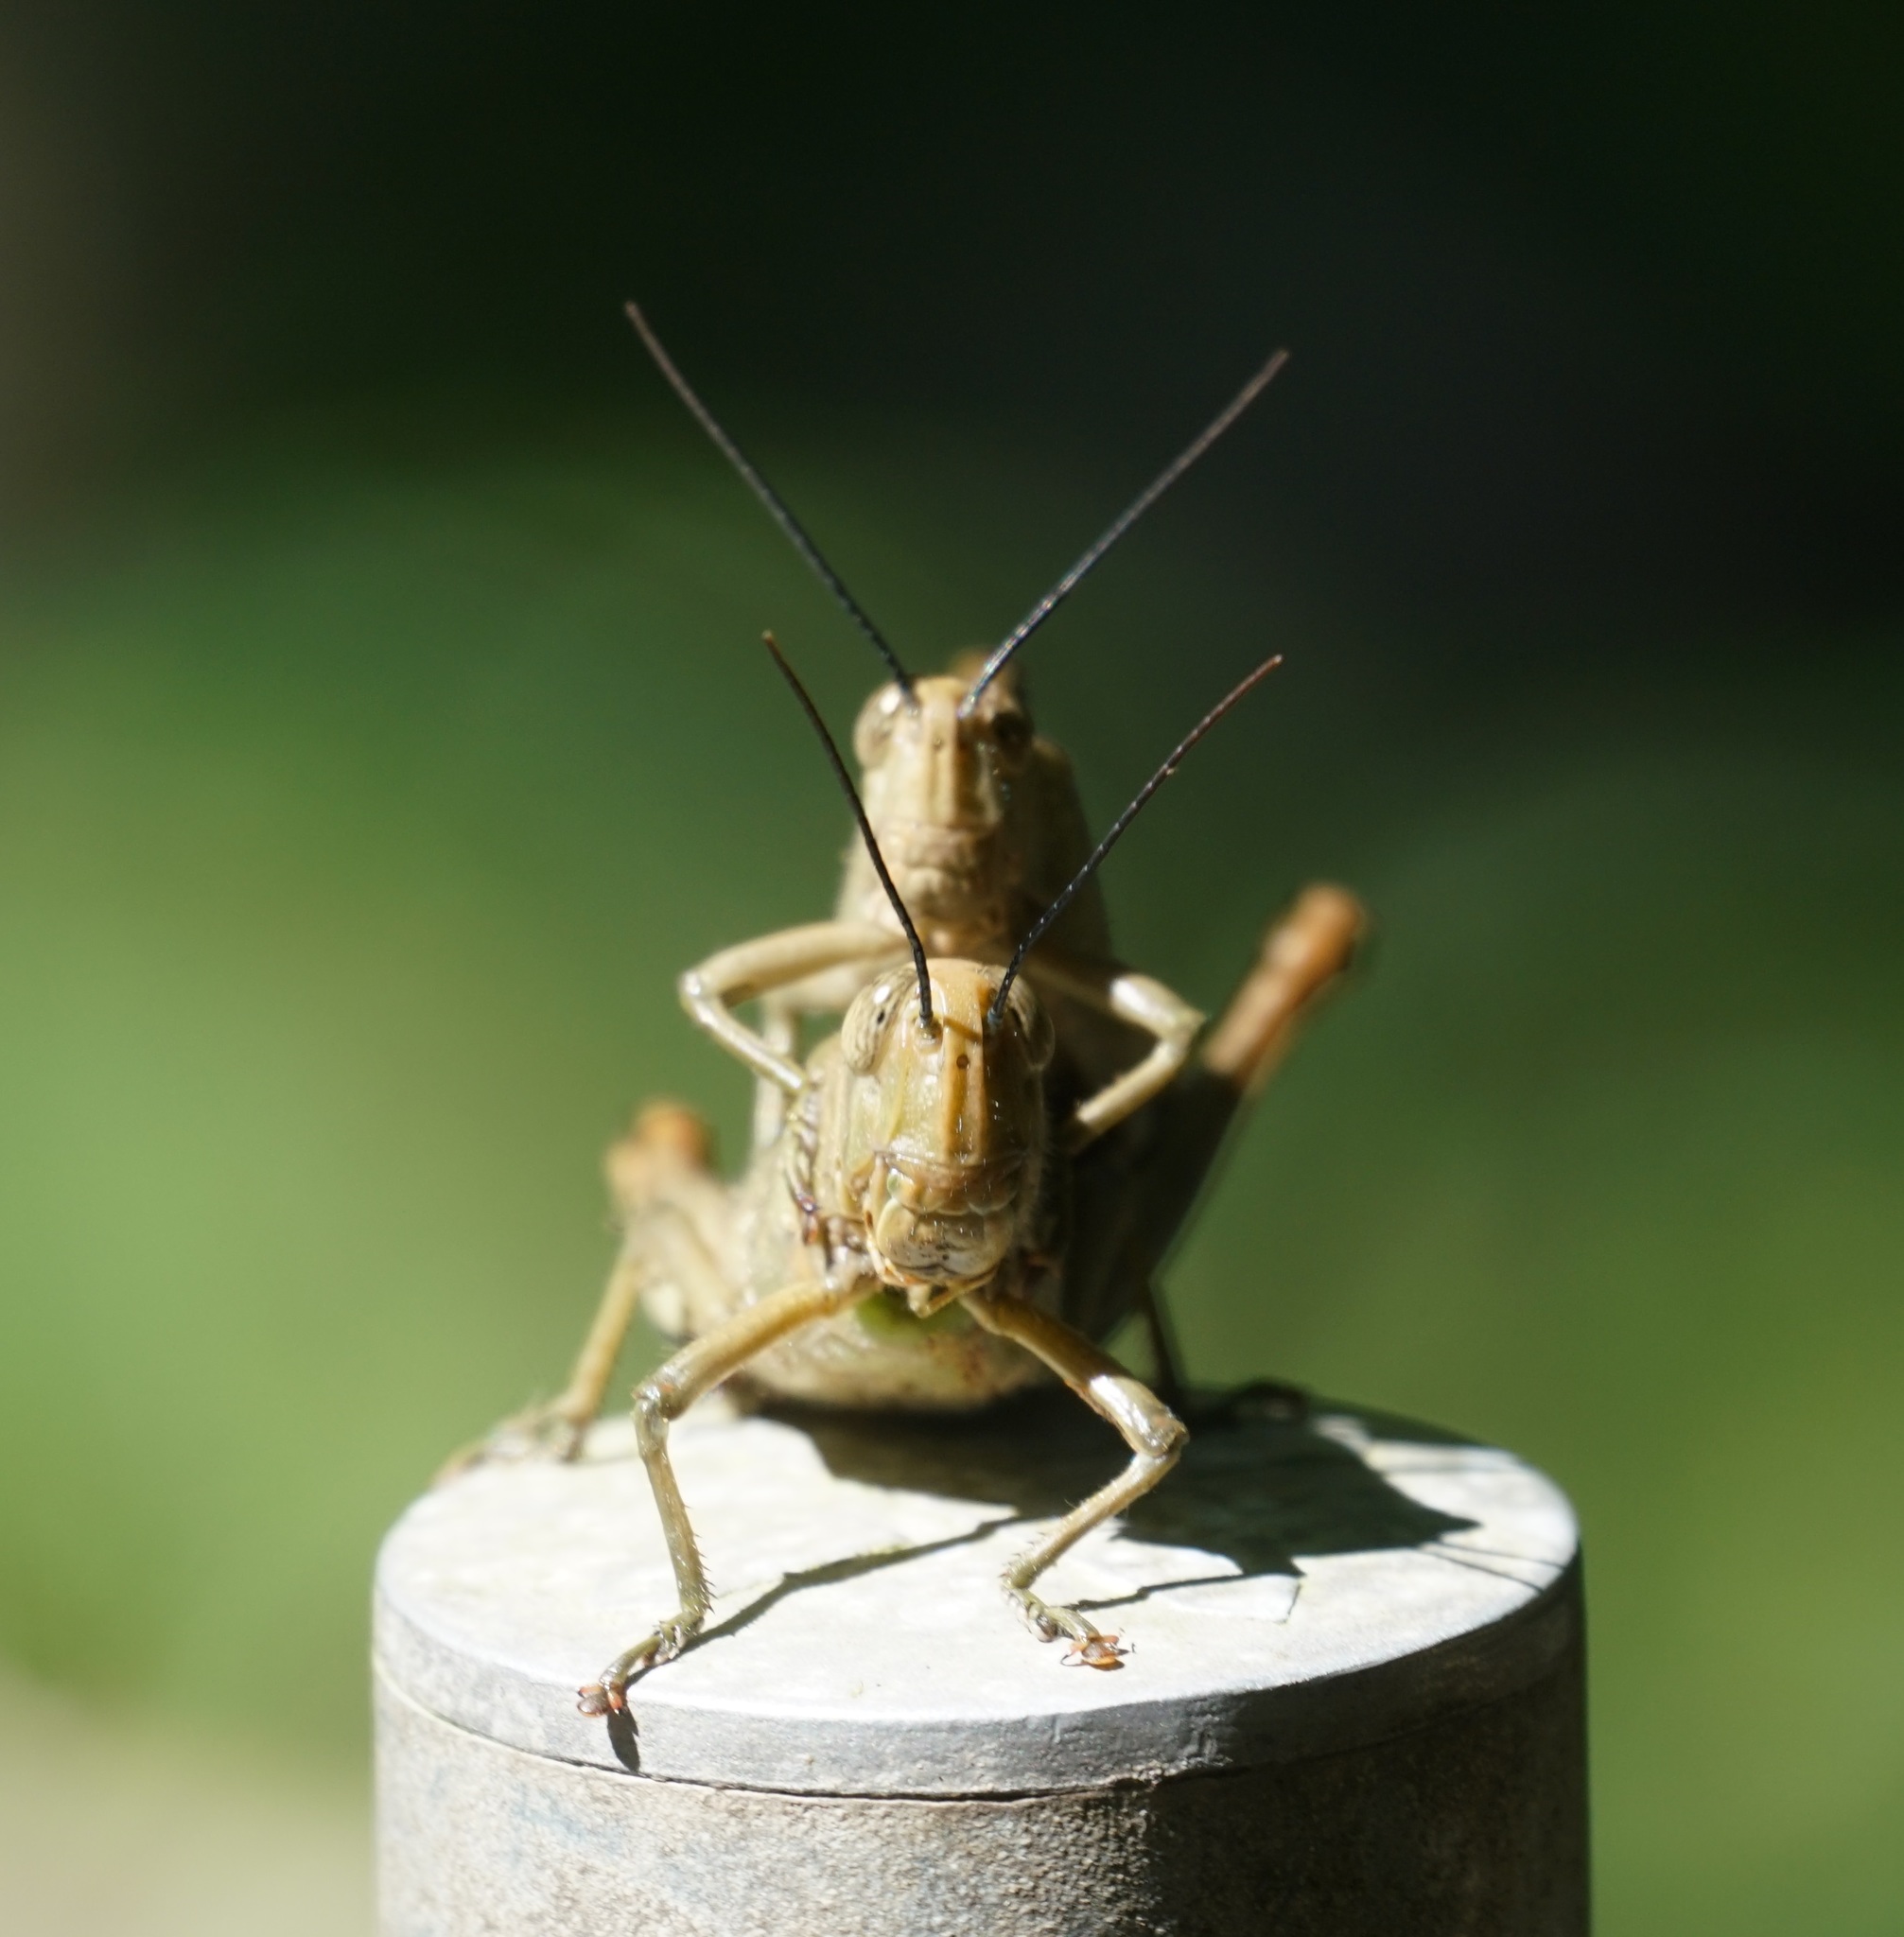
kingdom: Animalia
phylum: Arthropoda
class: Insecta
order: Orthoptera
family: Acrididae
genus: Valanga
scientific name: Valanga irregularis
